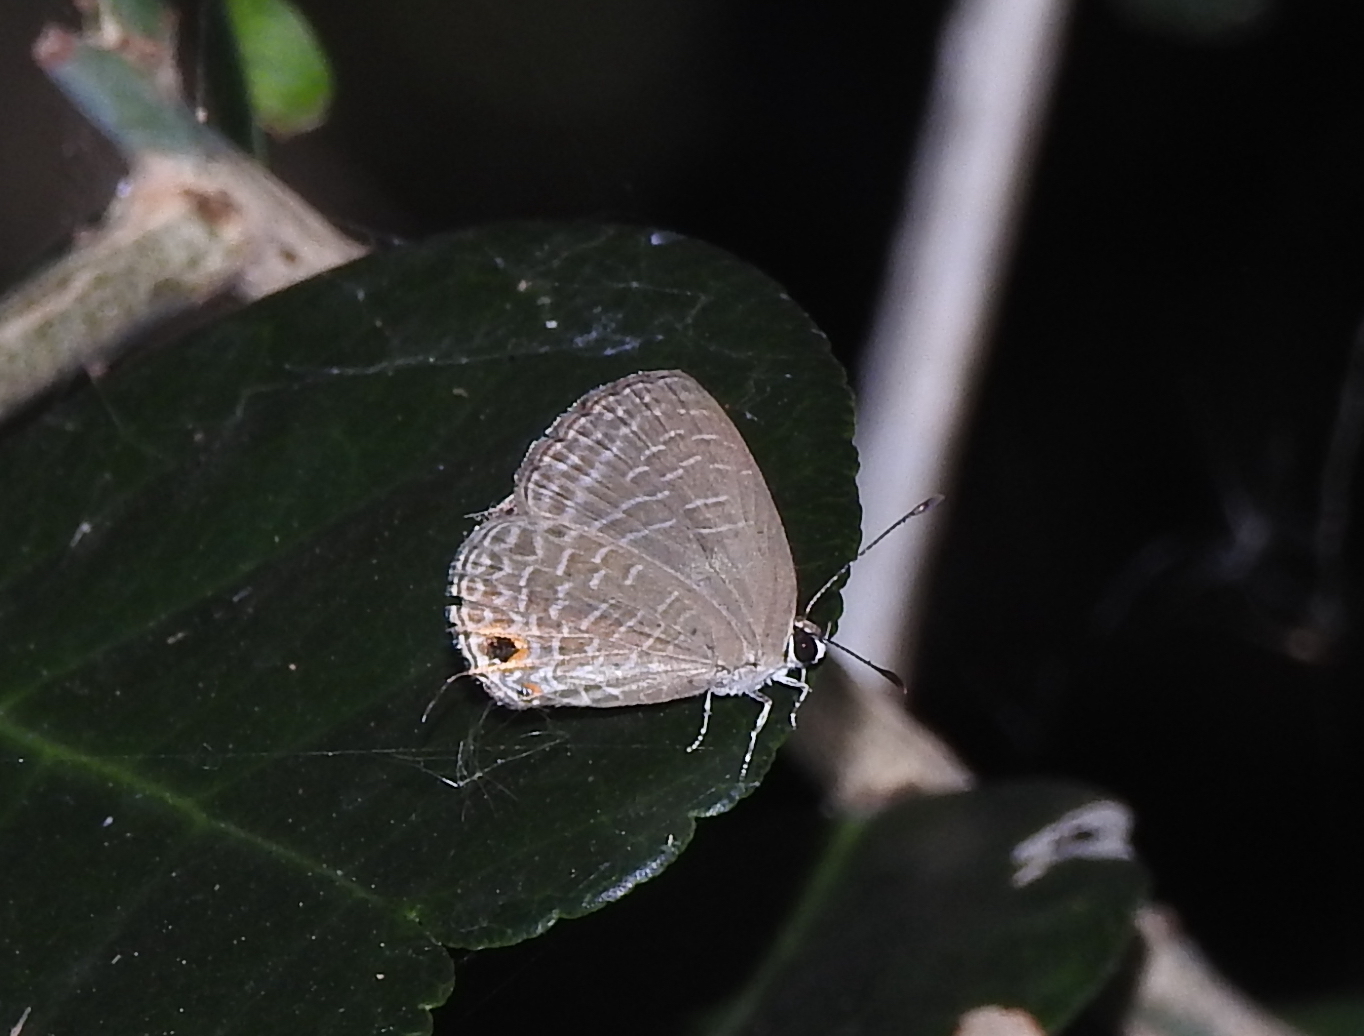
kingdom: Animalia
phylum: Arthropoda
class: Insecta
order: Lepidoptera
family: Lycaenidae
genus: Jamides
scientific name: Jamides bochus
